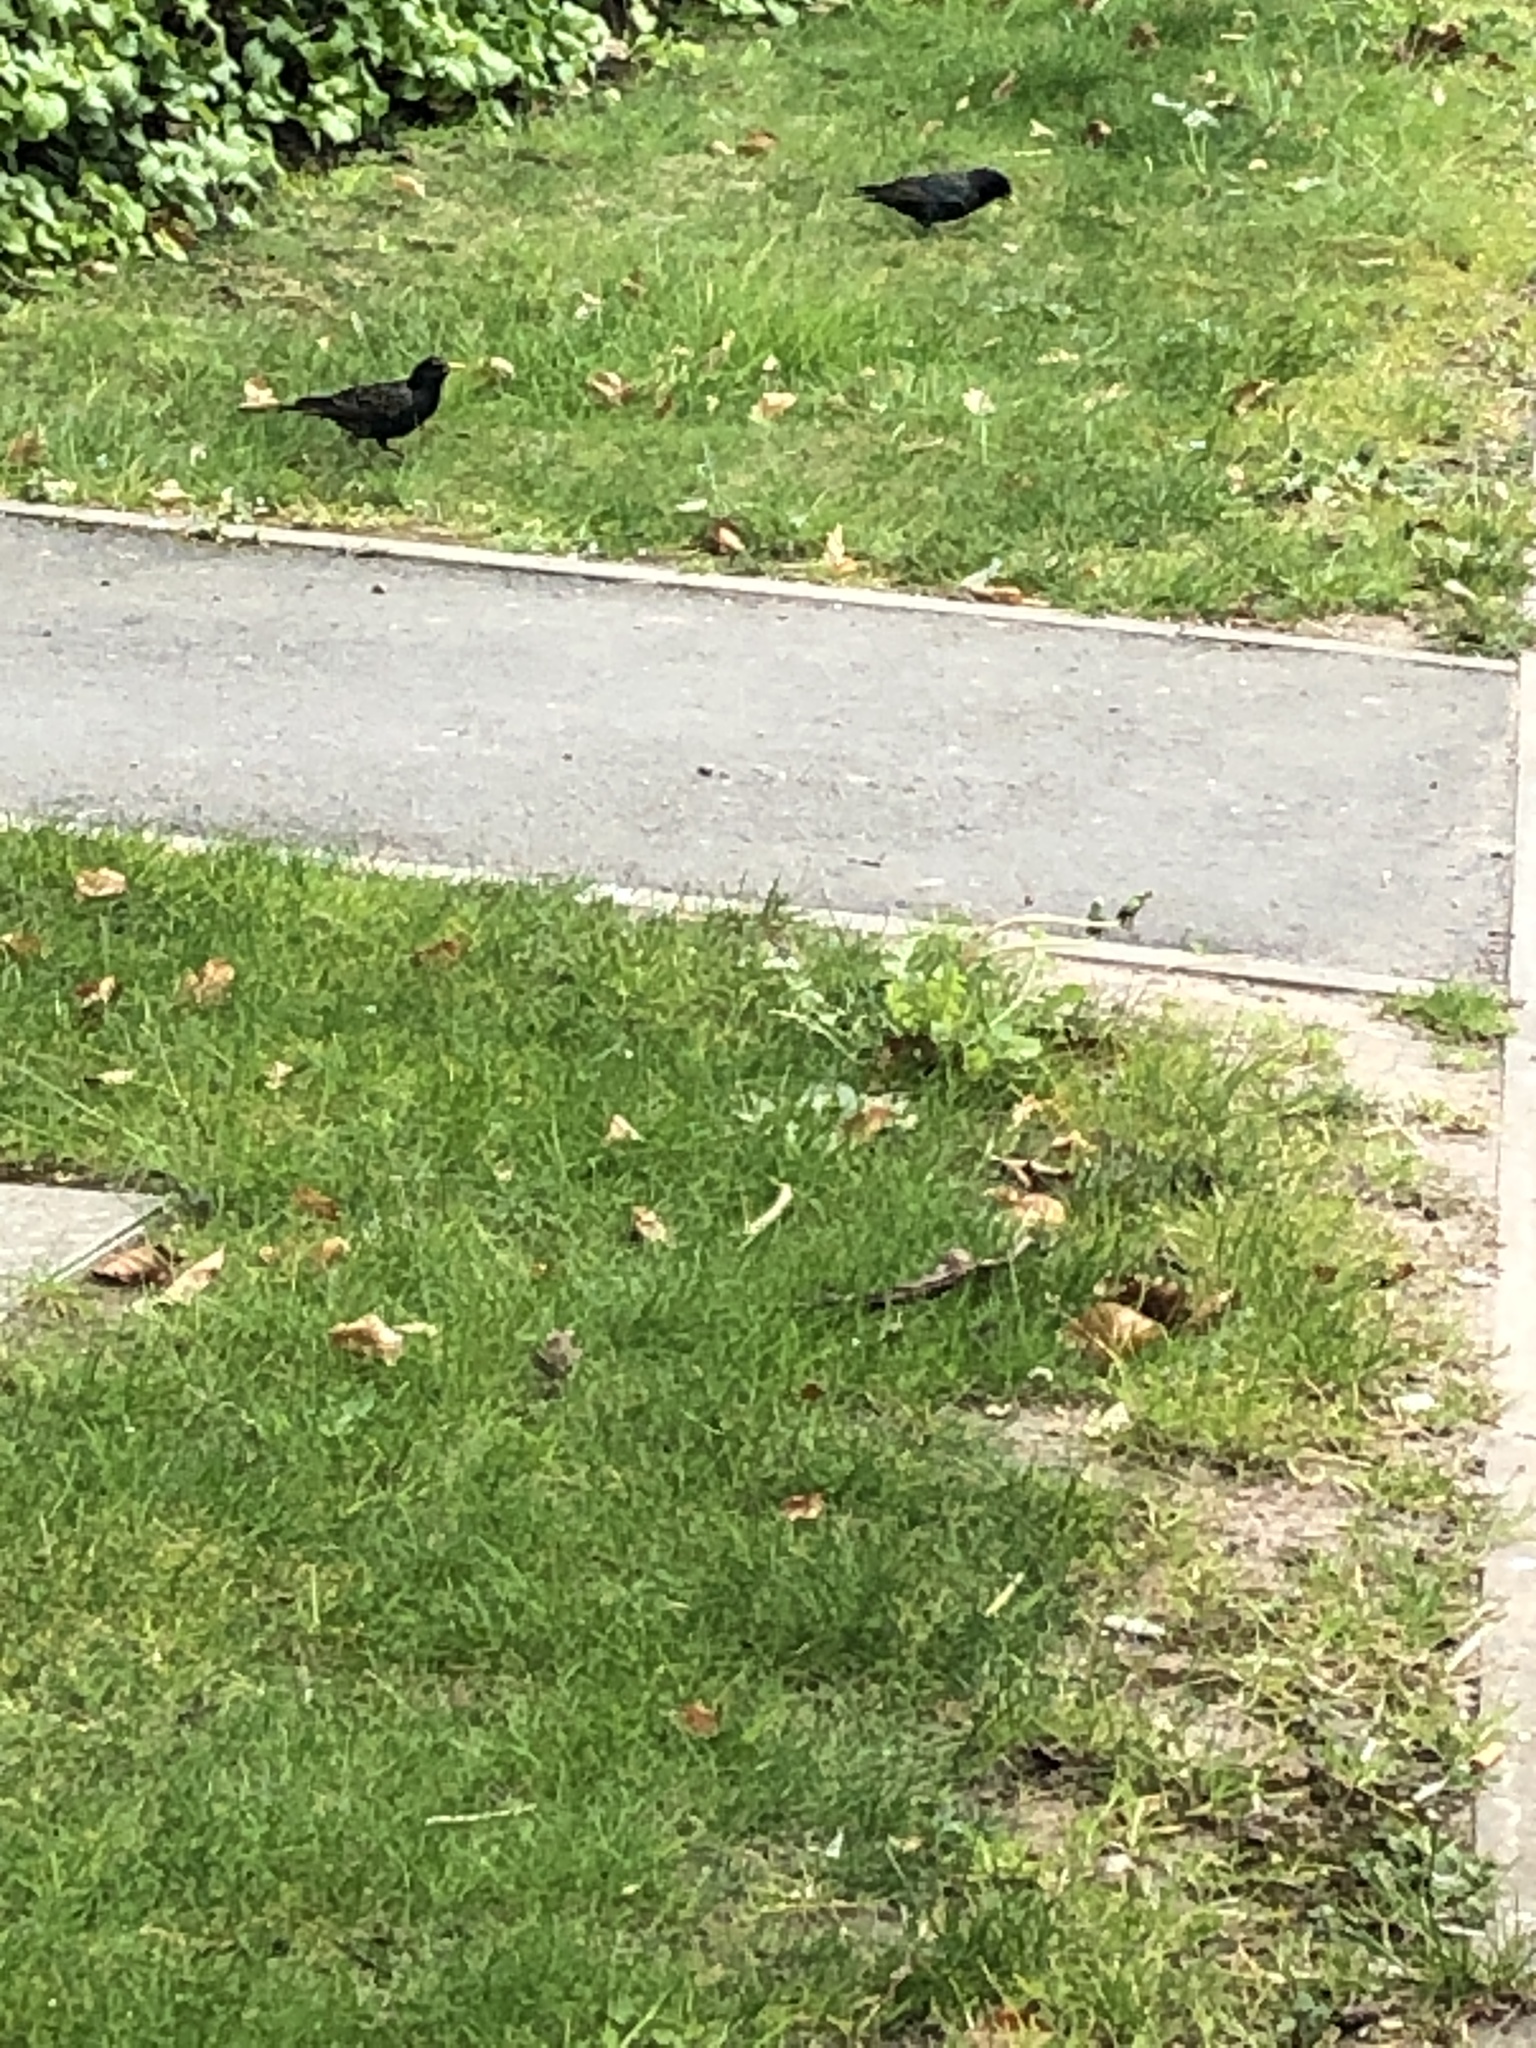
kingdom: Animalia
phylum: Chordata
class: Aves
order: Passeriformes
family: Sturnidae
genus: Sturnus
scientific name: Sturnus vulgaris
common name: Common starling
